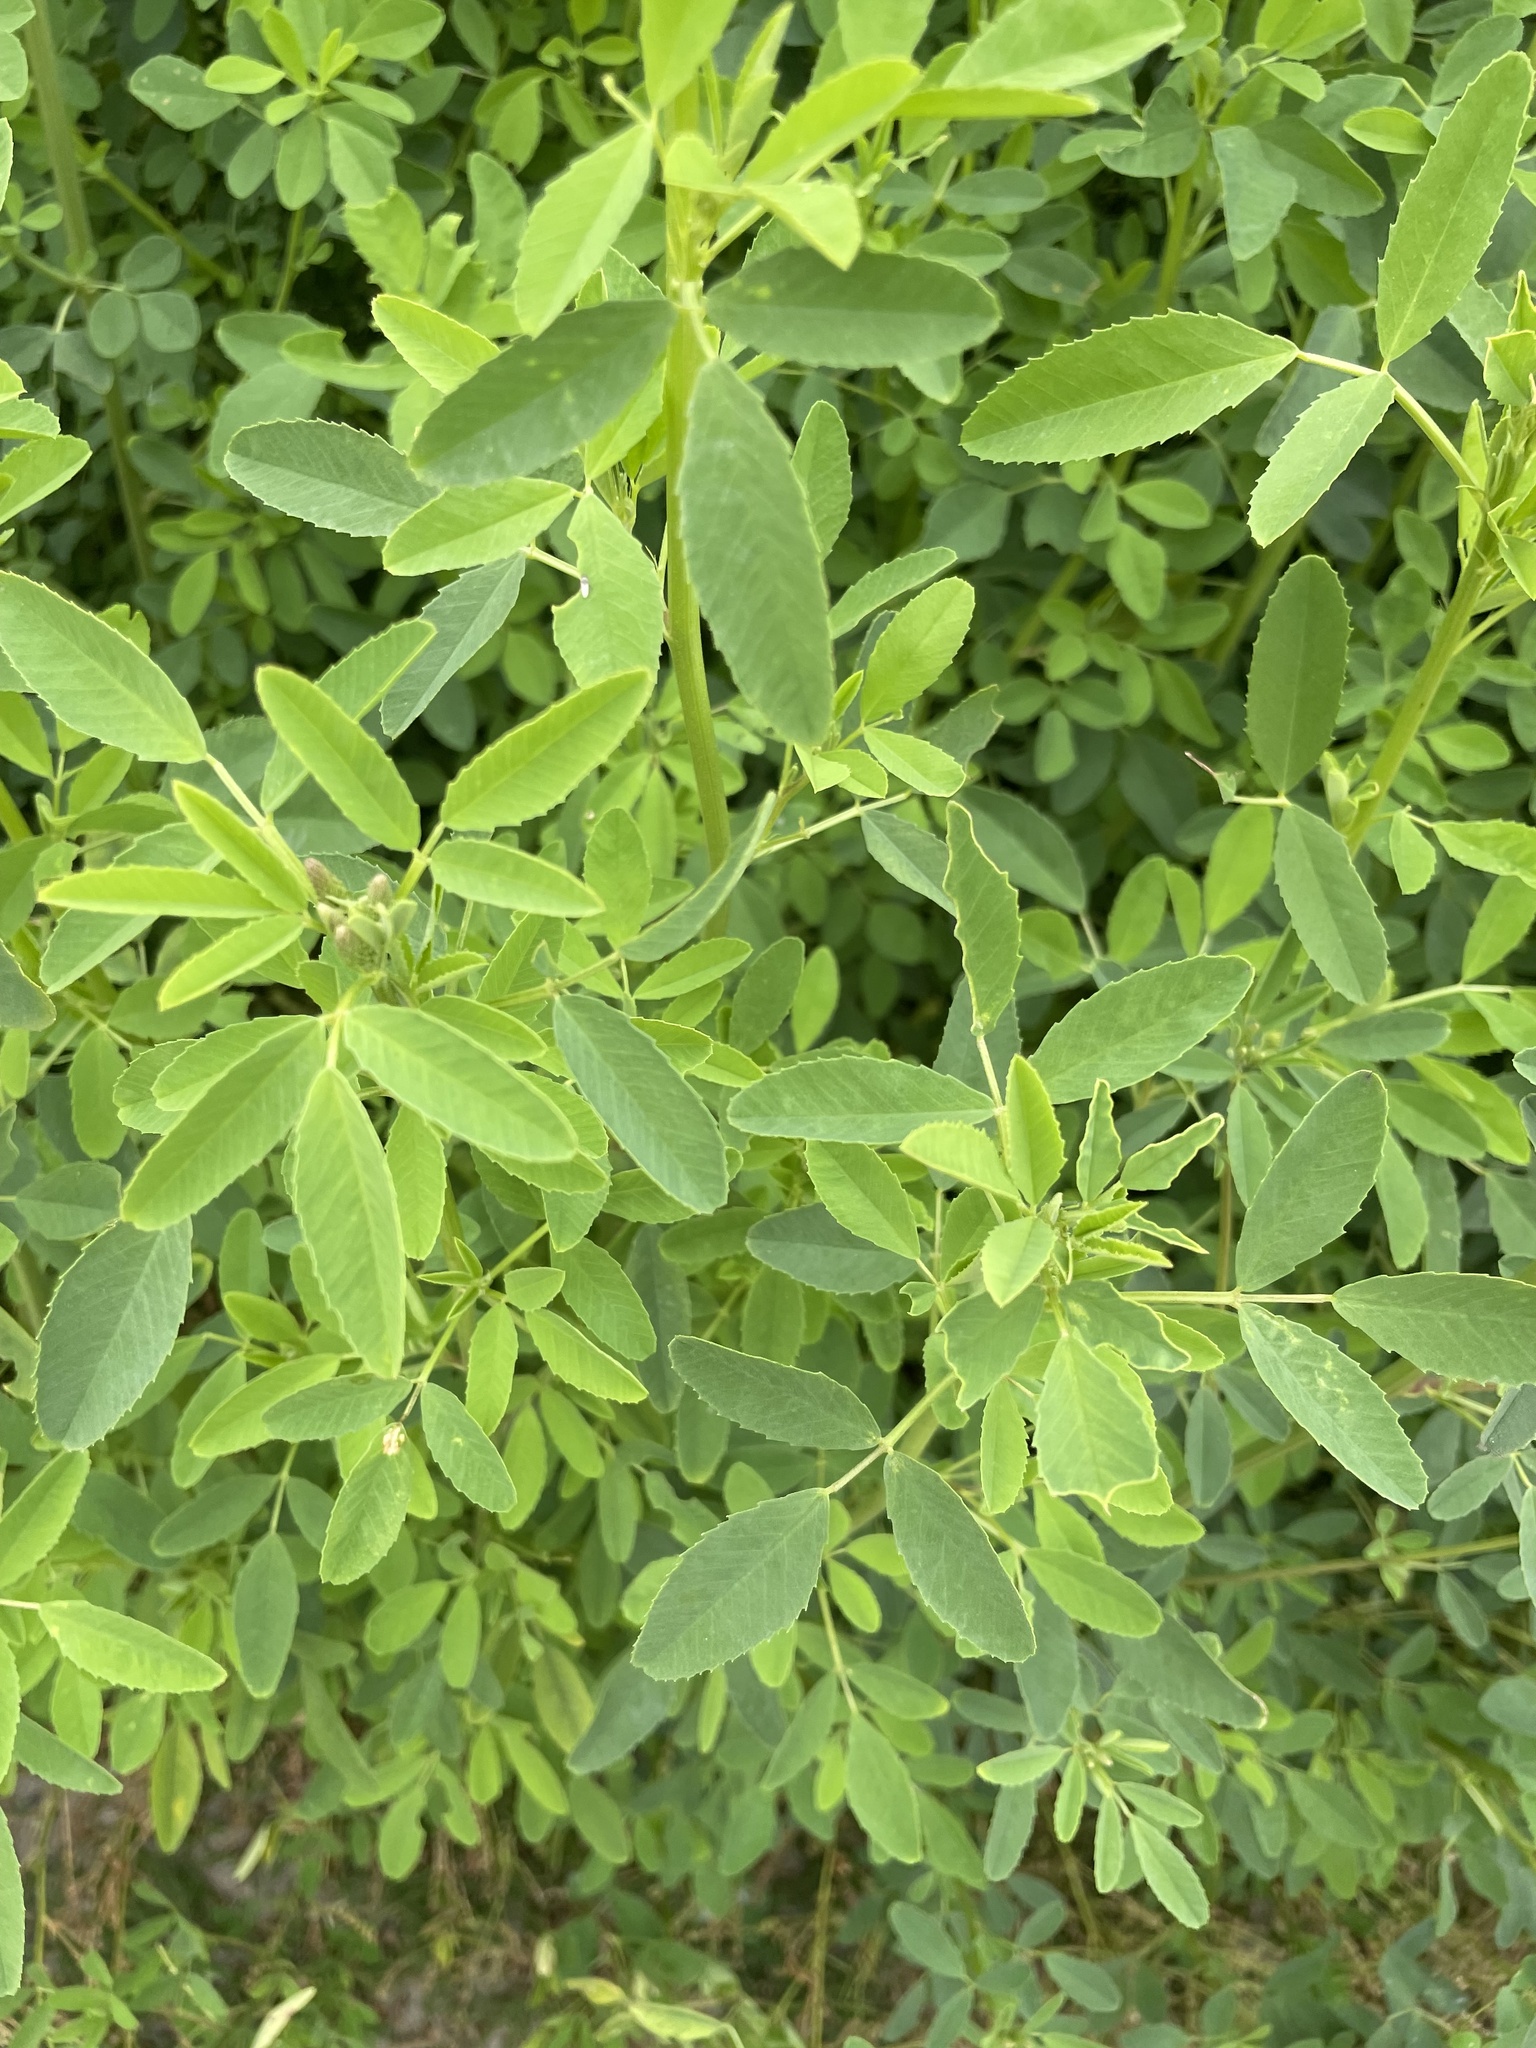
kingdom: Plantae
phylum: Tracheophyta
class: Magnoliopsida
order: Fabales
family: Fabaceae
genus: Melilotus
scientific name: Melilotus albus
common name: White melilot
